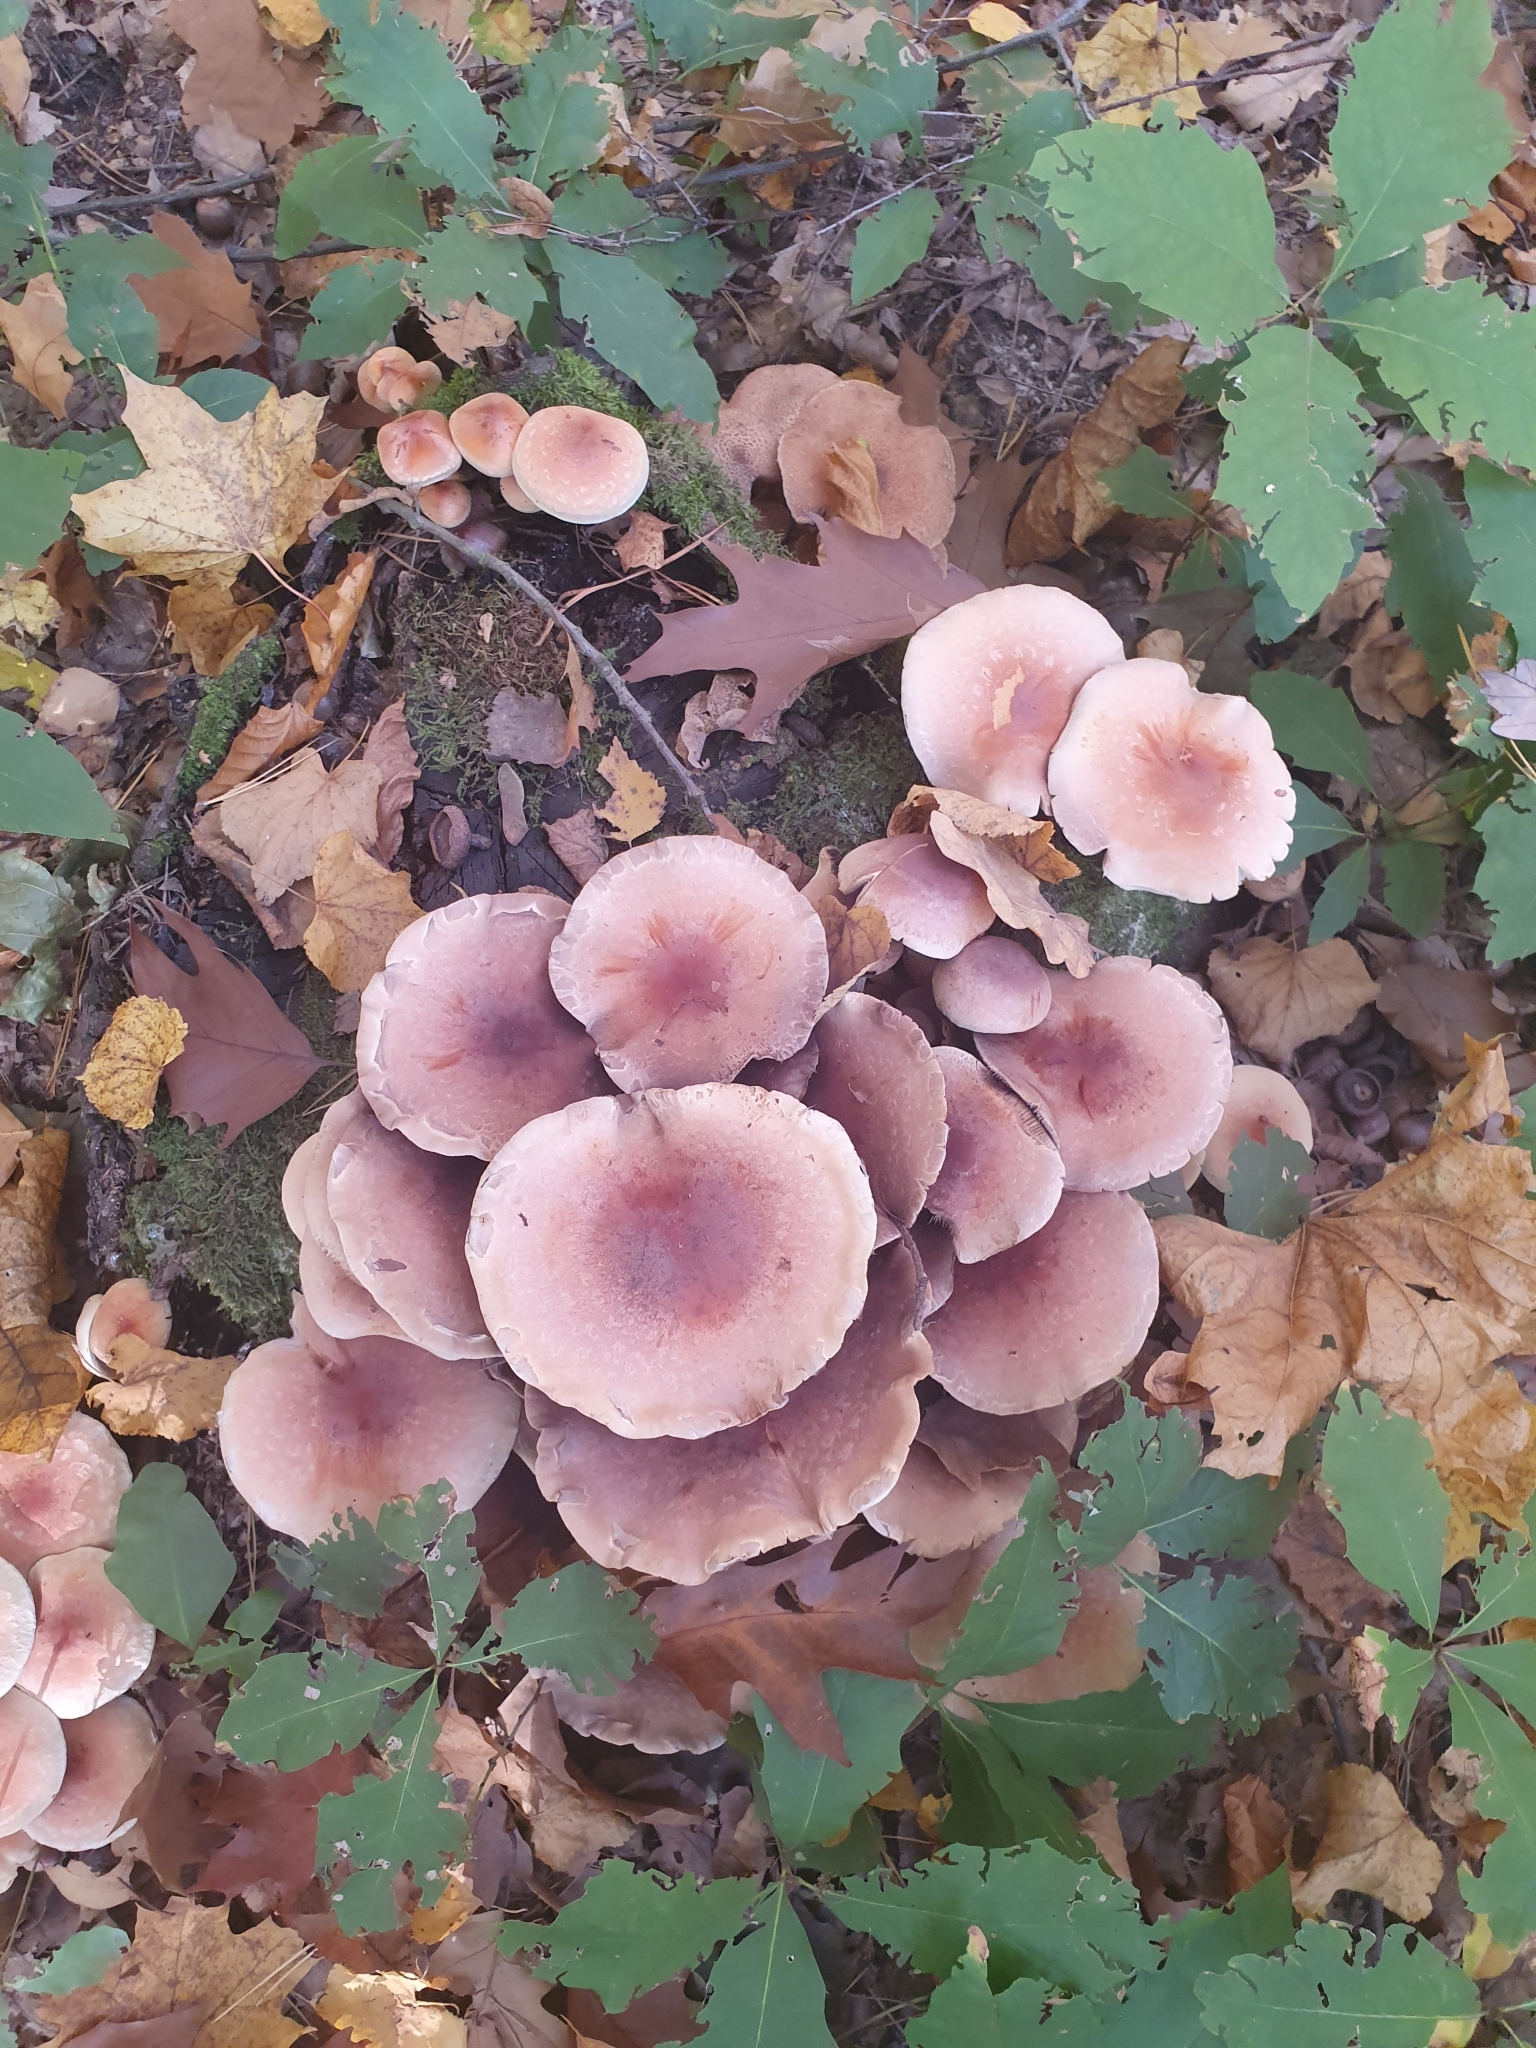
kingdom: Fungi
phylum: Basidiomycota
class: Agaricomycetes
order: Agaricales
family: Strophariaceae
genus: Hypholoma
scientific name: Hypholoma lateritium
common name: Brick caps
